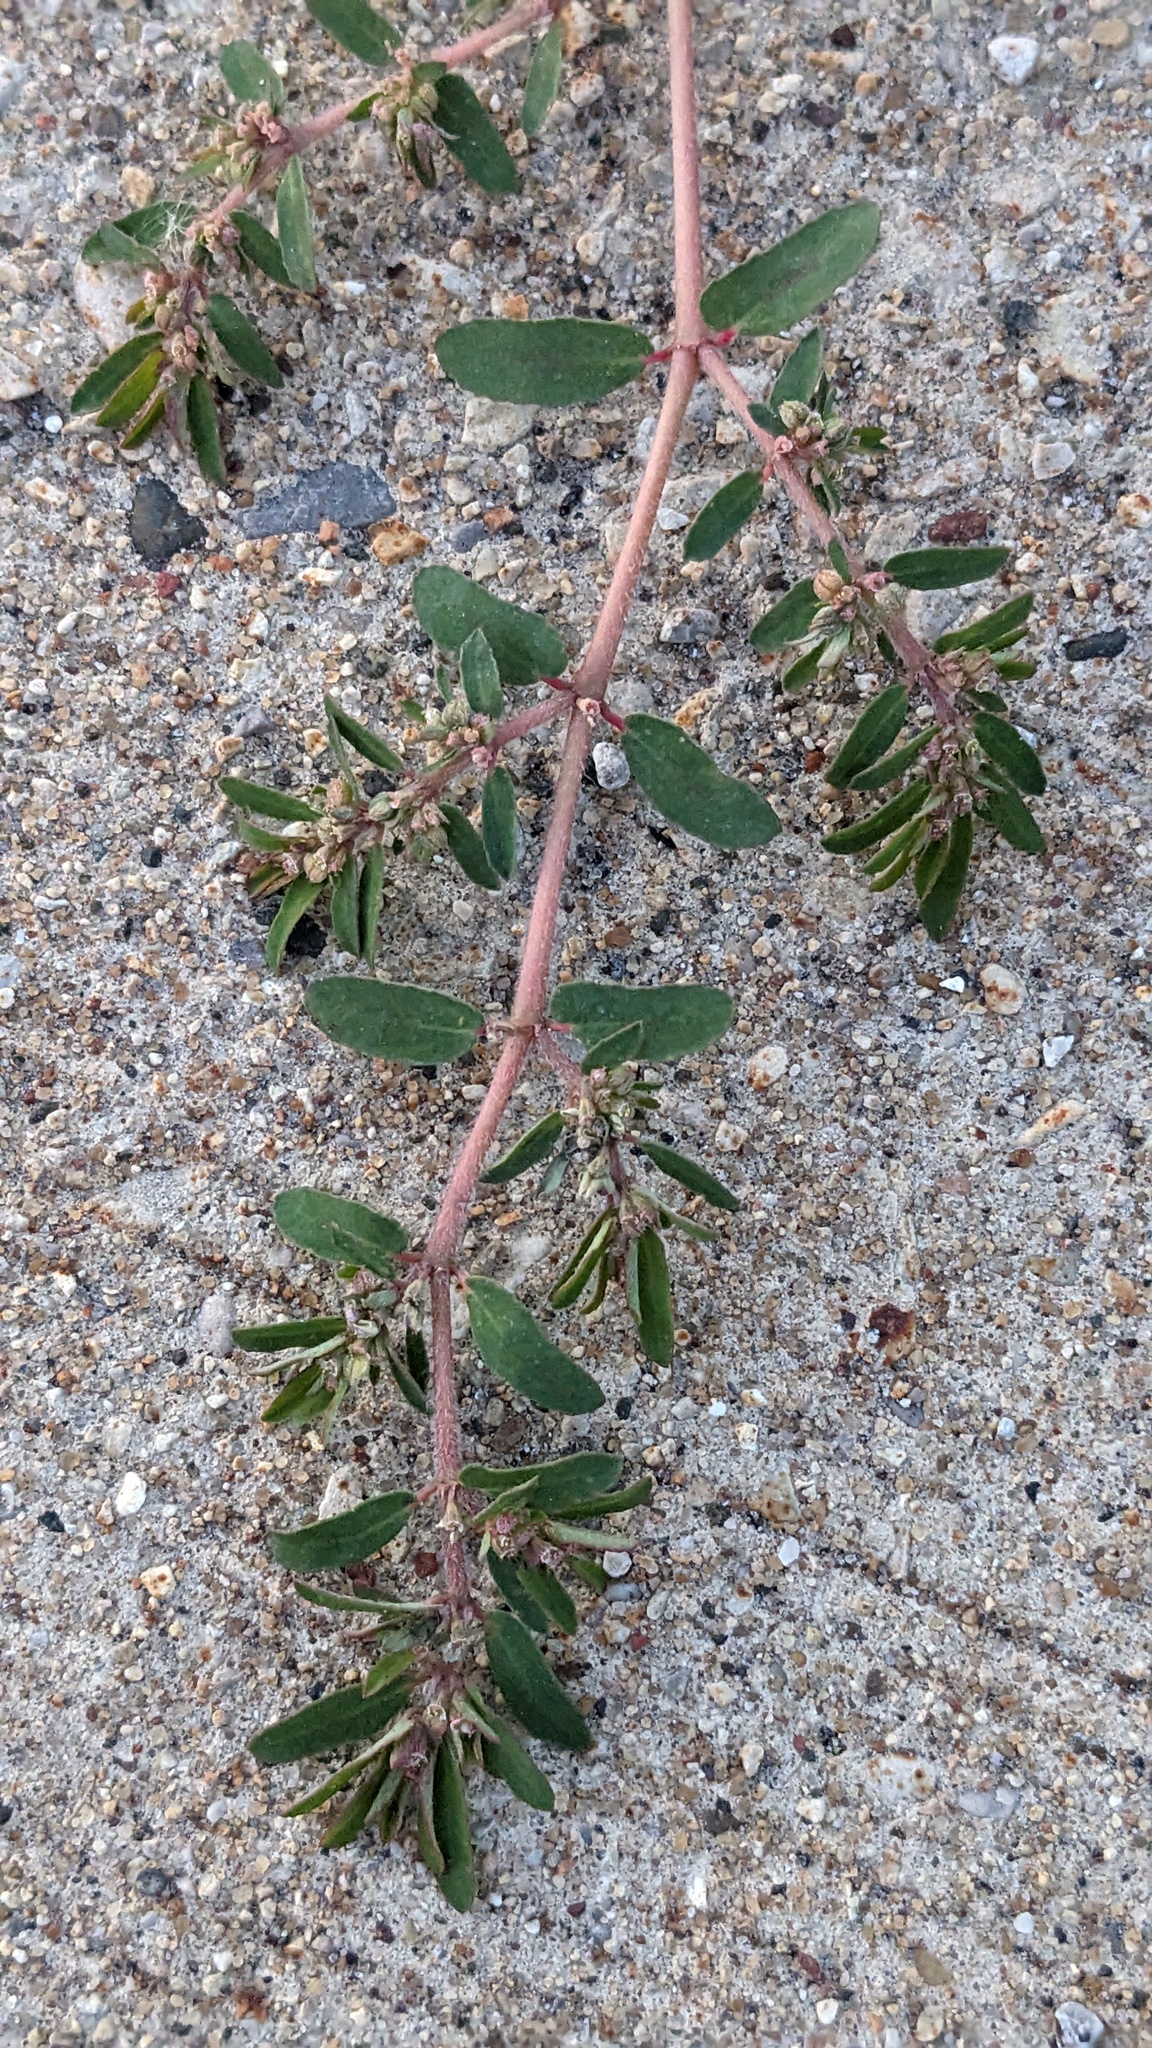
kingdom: Plantae
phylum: Tracheophyta
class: Magnoliopsida
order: Malpighiales
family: Euphorbiaceae
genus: Euphorbia
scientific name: Euphorbia maculata
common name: Spotted spurge
